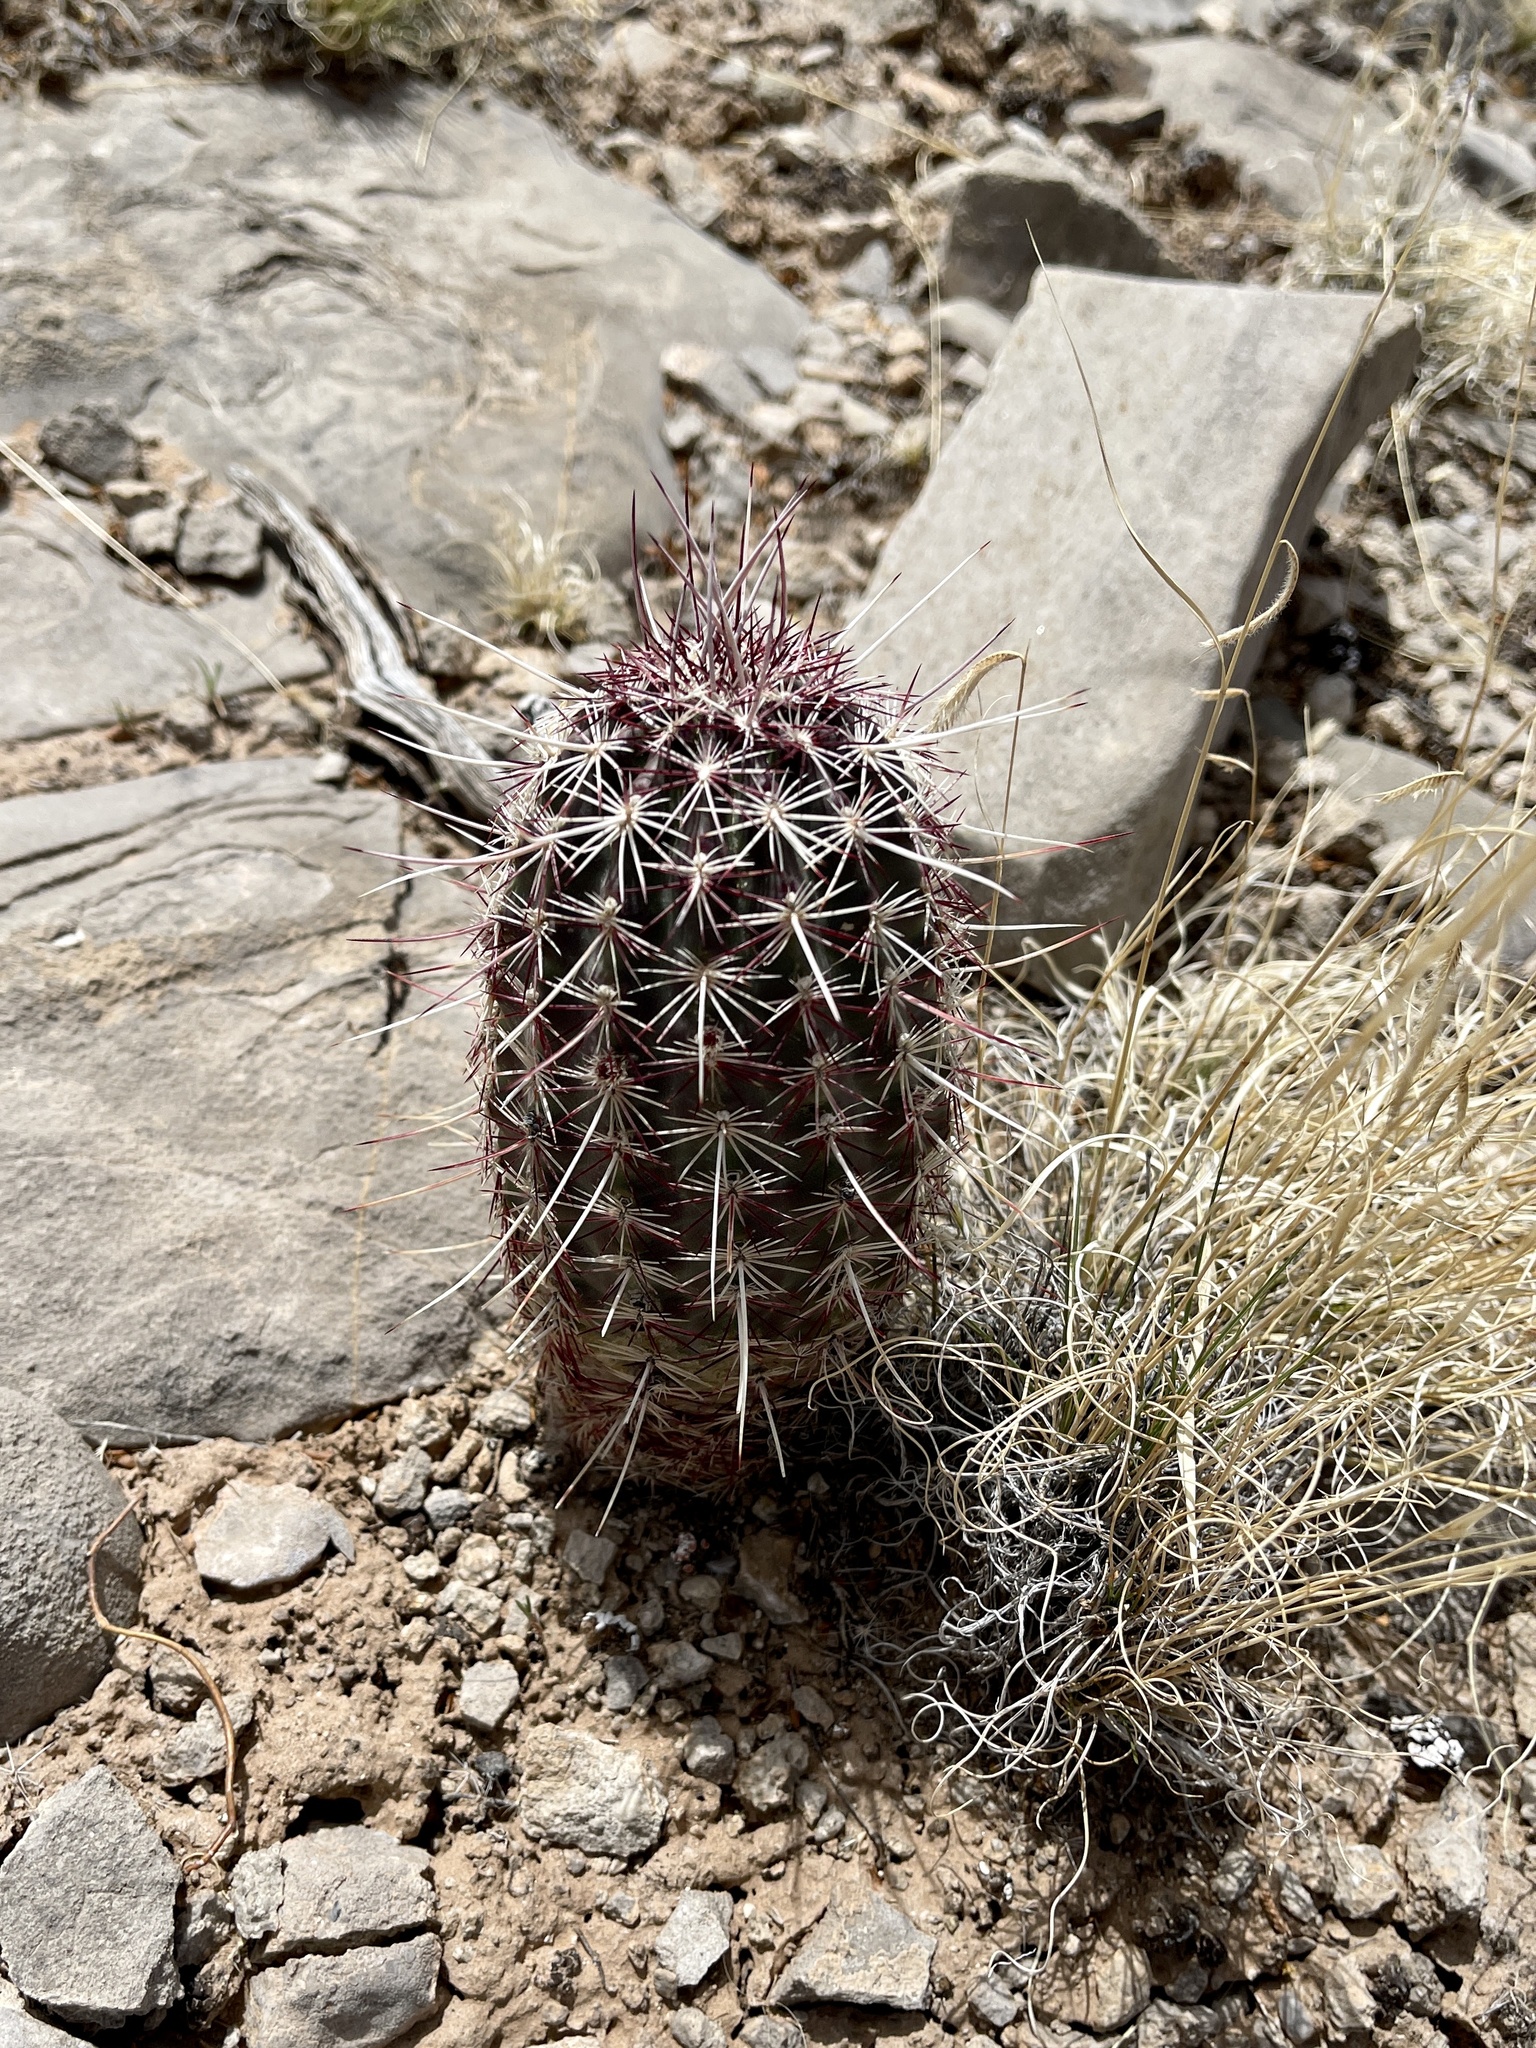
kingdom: Plantae
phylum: Tracheophyta
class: Magnoliopsida
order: Caryophyllales
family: Cactaceae
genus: Echinocereus
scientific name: Echinocereus viridiflorus
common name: Nylon hedgehog cactus
